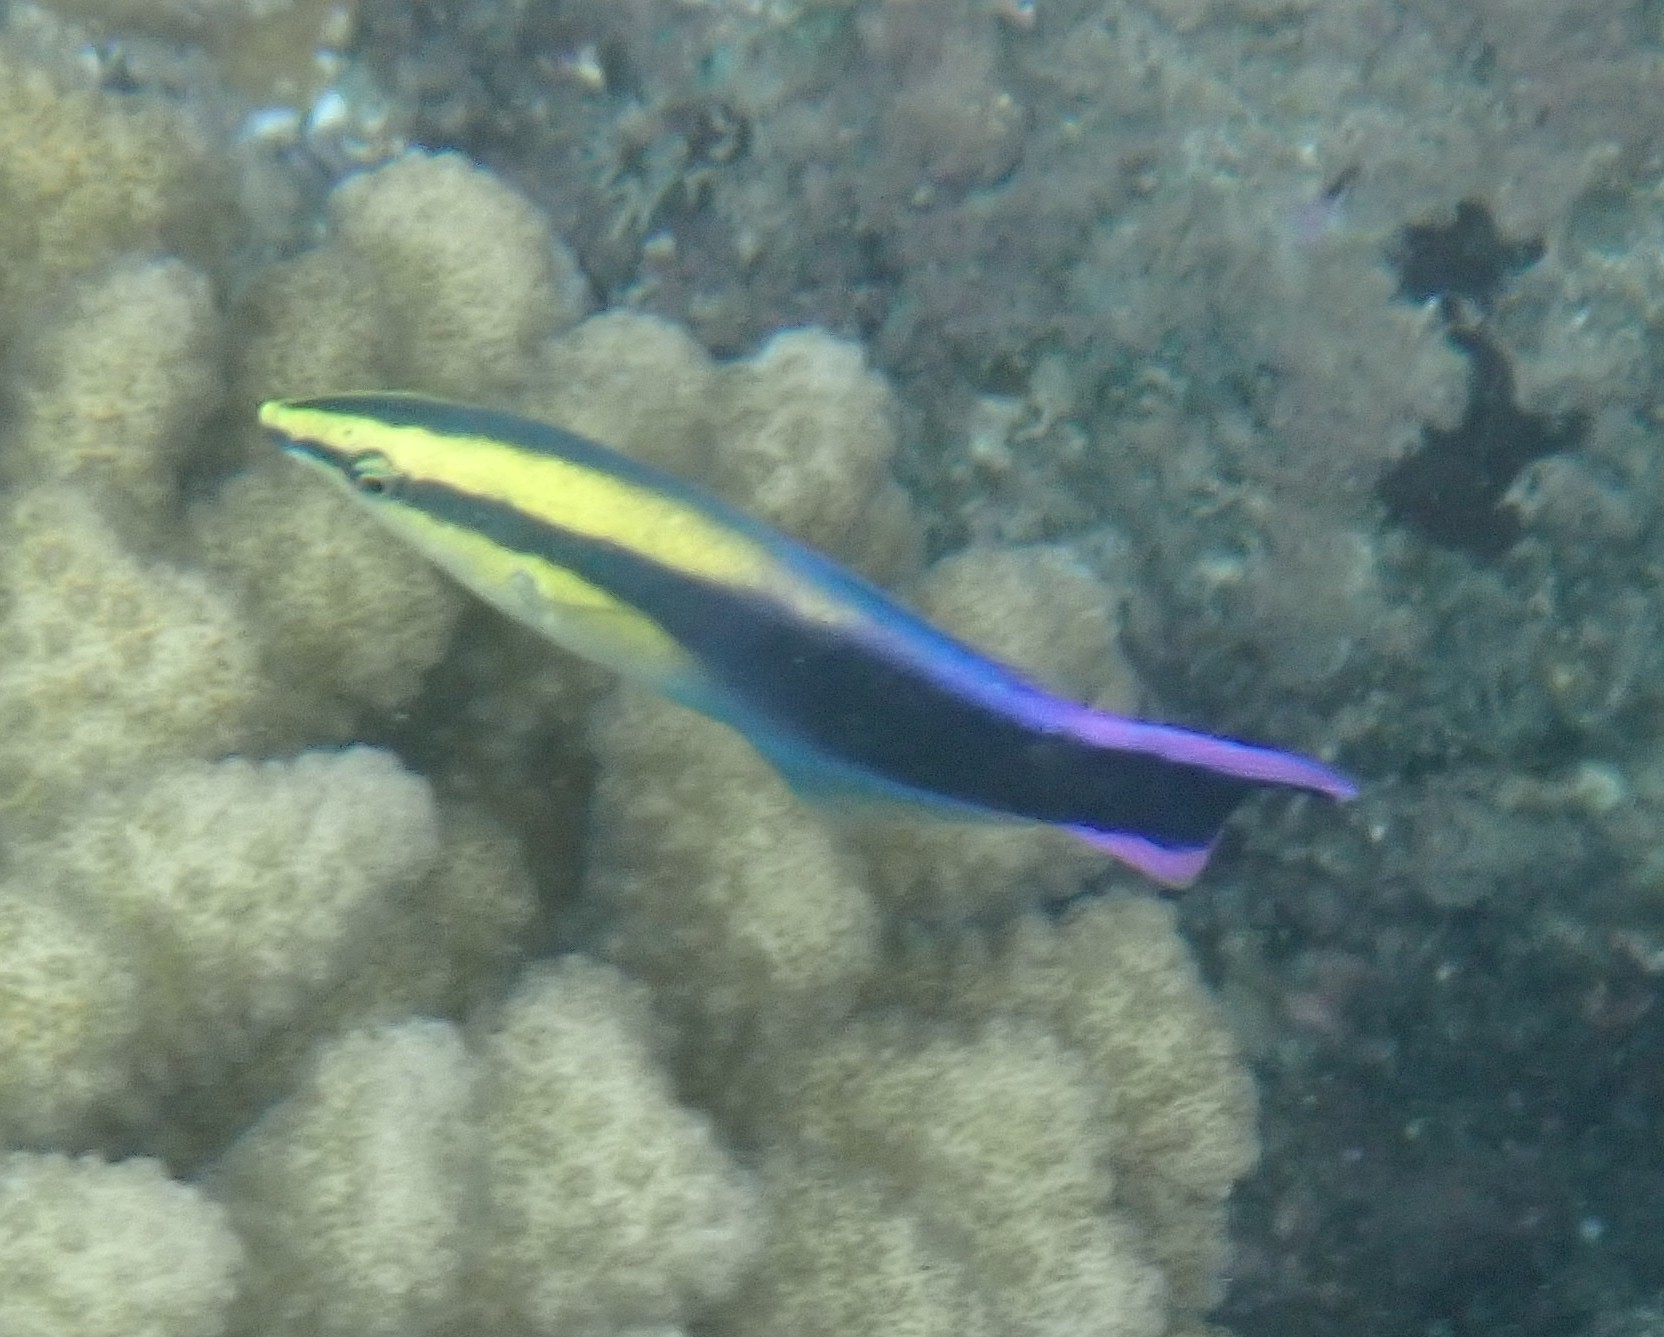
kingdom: Animalia
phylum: Chordata
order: Perciformes
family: Labridae
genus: Labroides
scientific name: Labroides phthirophagus
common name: Cleaner wrasse
